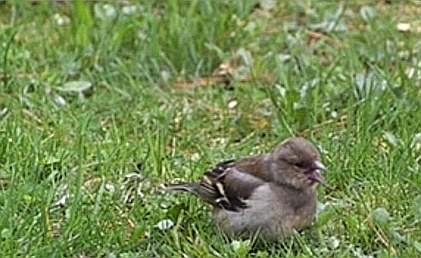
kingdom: Animalia
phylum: Chordata
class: Aves
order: Passeriformes
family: Fringillidae
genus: Fringilla
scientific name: Fringilla coelebs
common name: Common chaffinch
